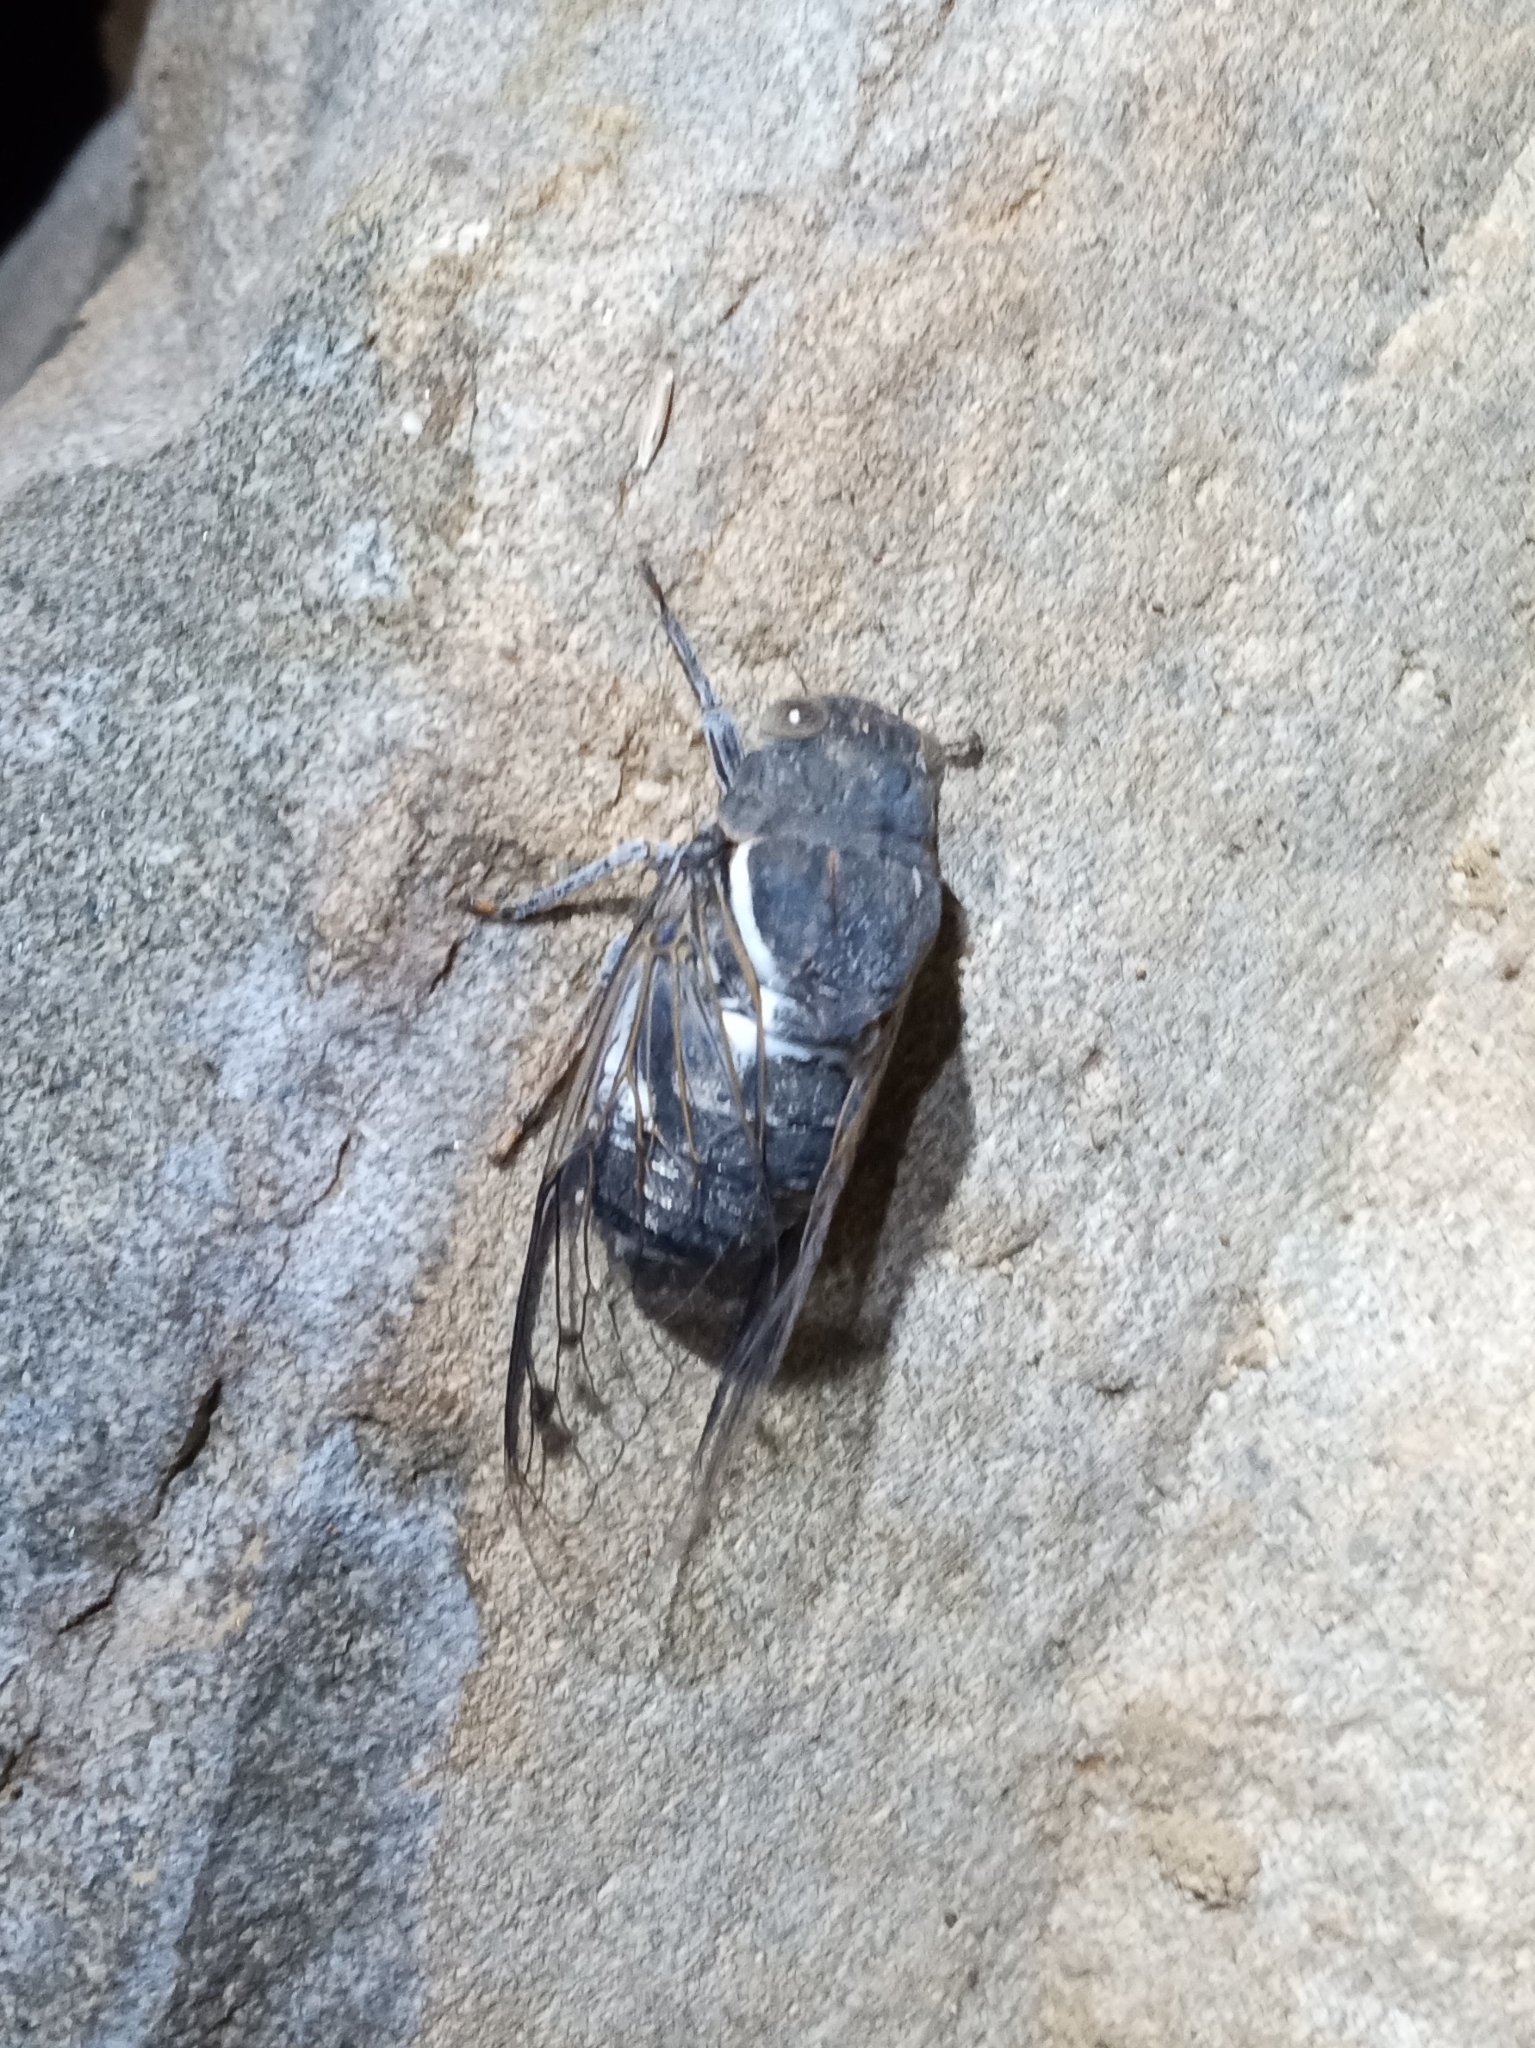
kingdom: Animalia
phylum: Arthropoda
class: Insecta
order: Hemiptera
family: Cicadidae
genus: Cacama
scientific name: Cacama moorei
